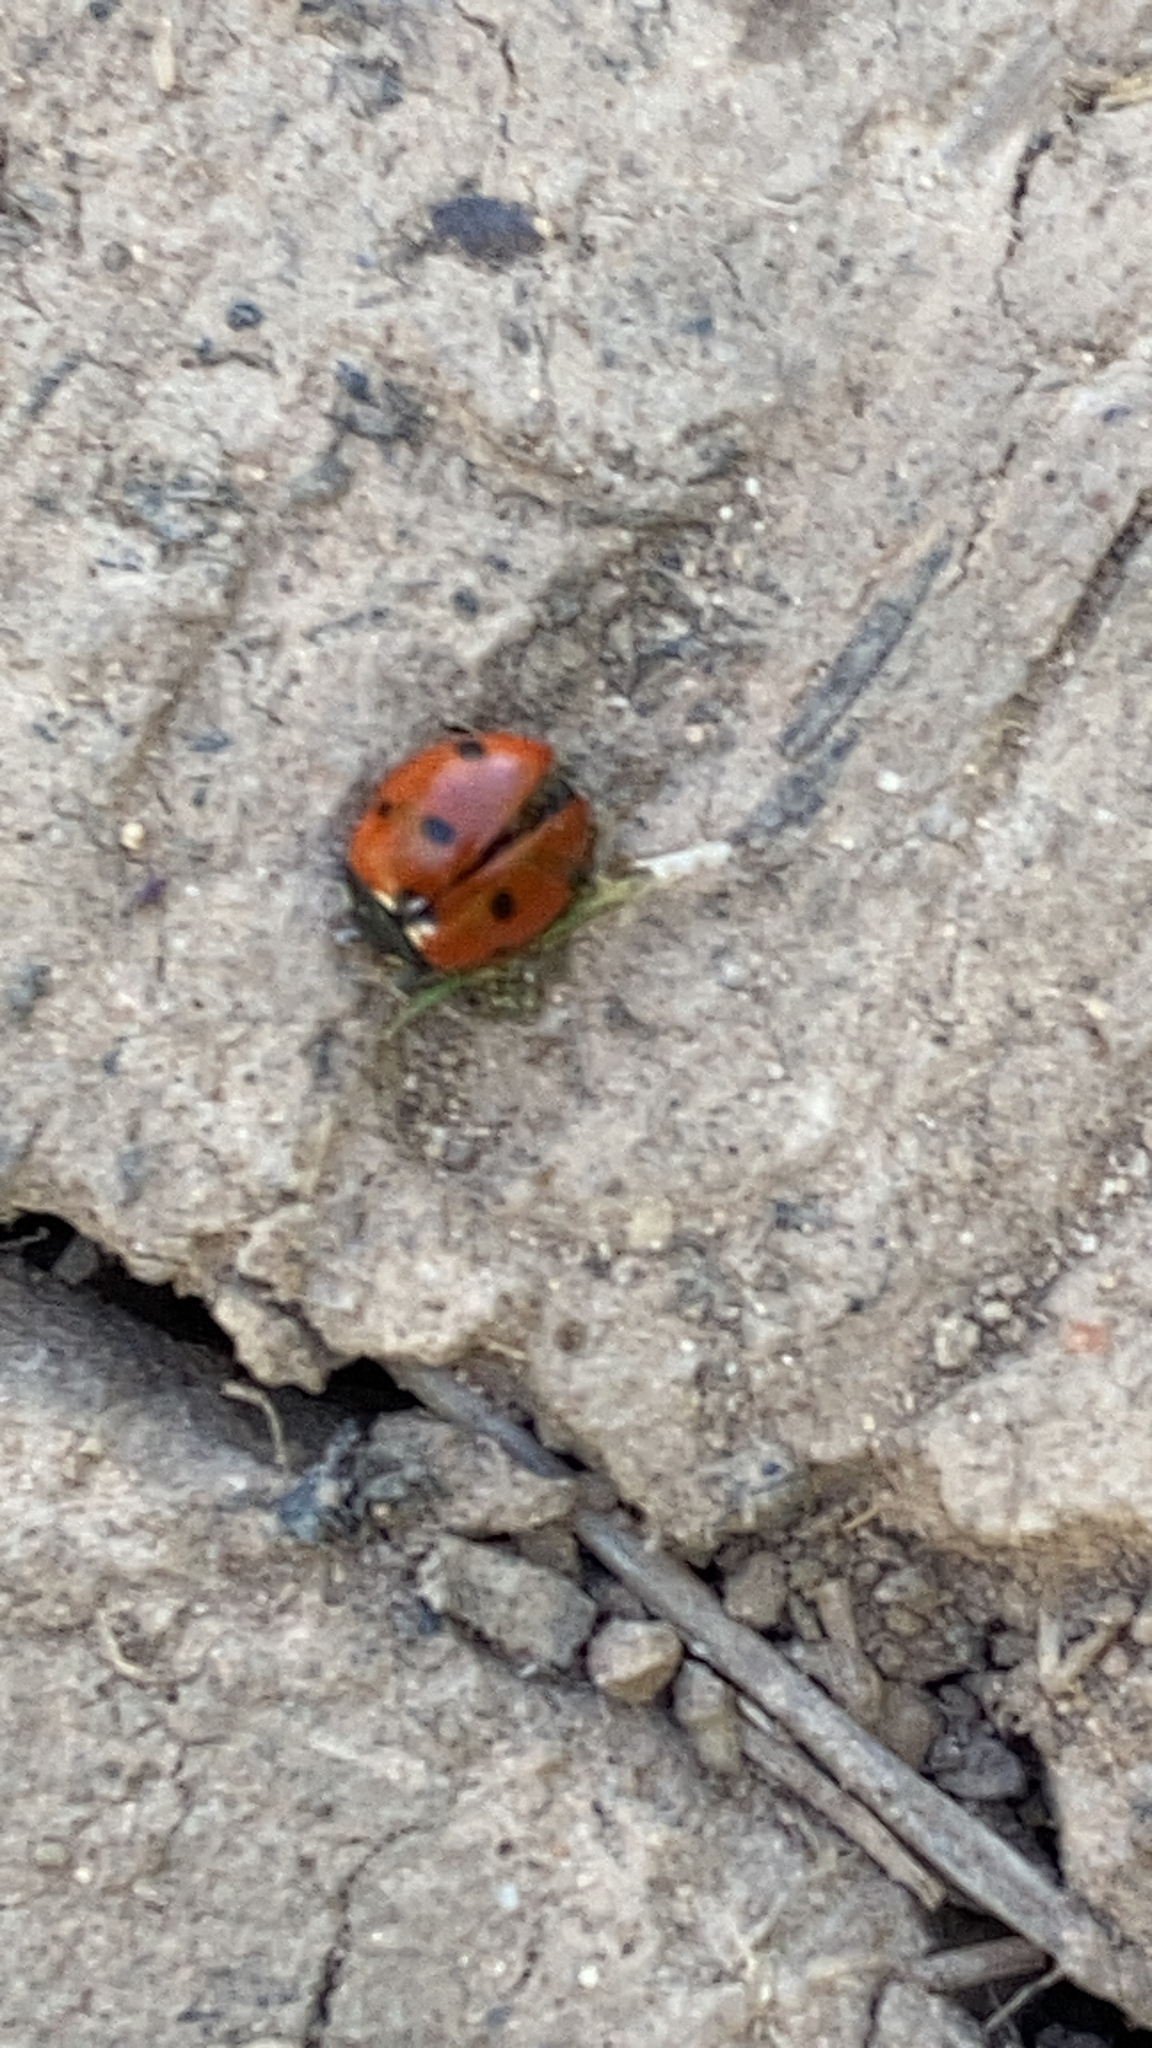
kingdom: Animalia
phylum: Arthropoda
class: Insecta
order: Coleoptera
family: Coccinellidae
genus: Coccinella
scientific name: Coccinella septempunctata
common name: Sevenspotted lady beetle
